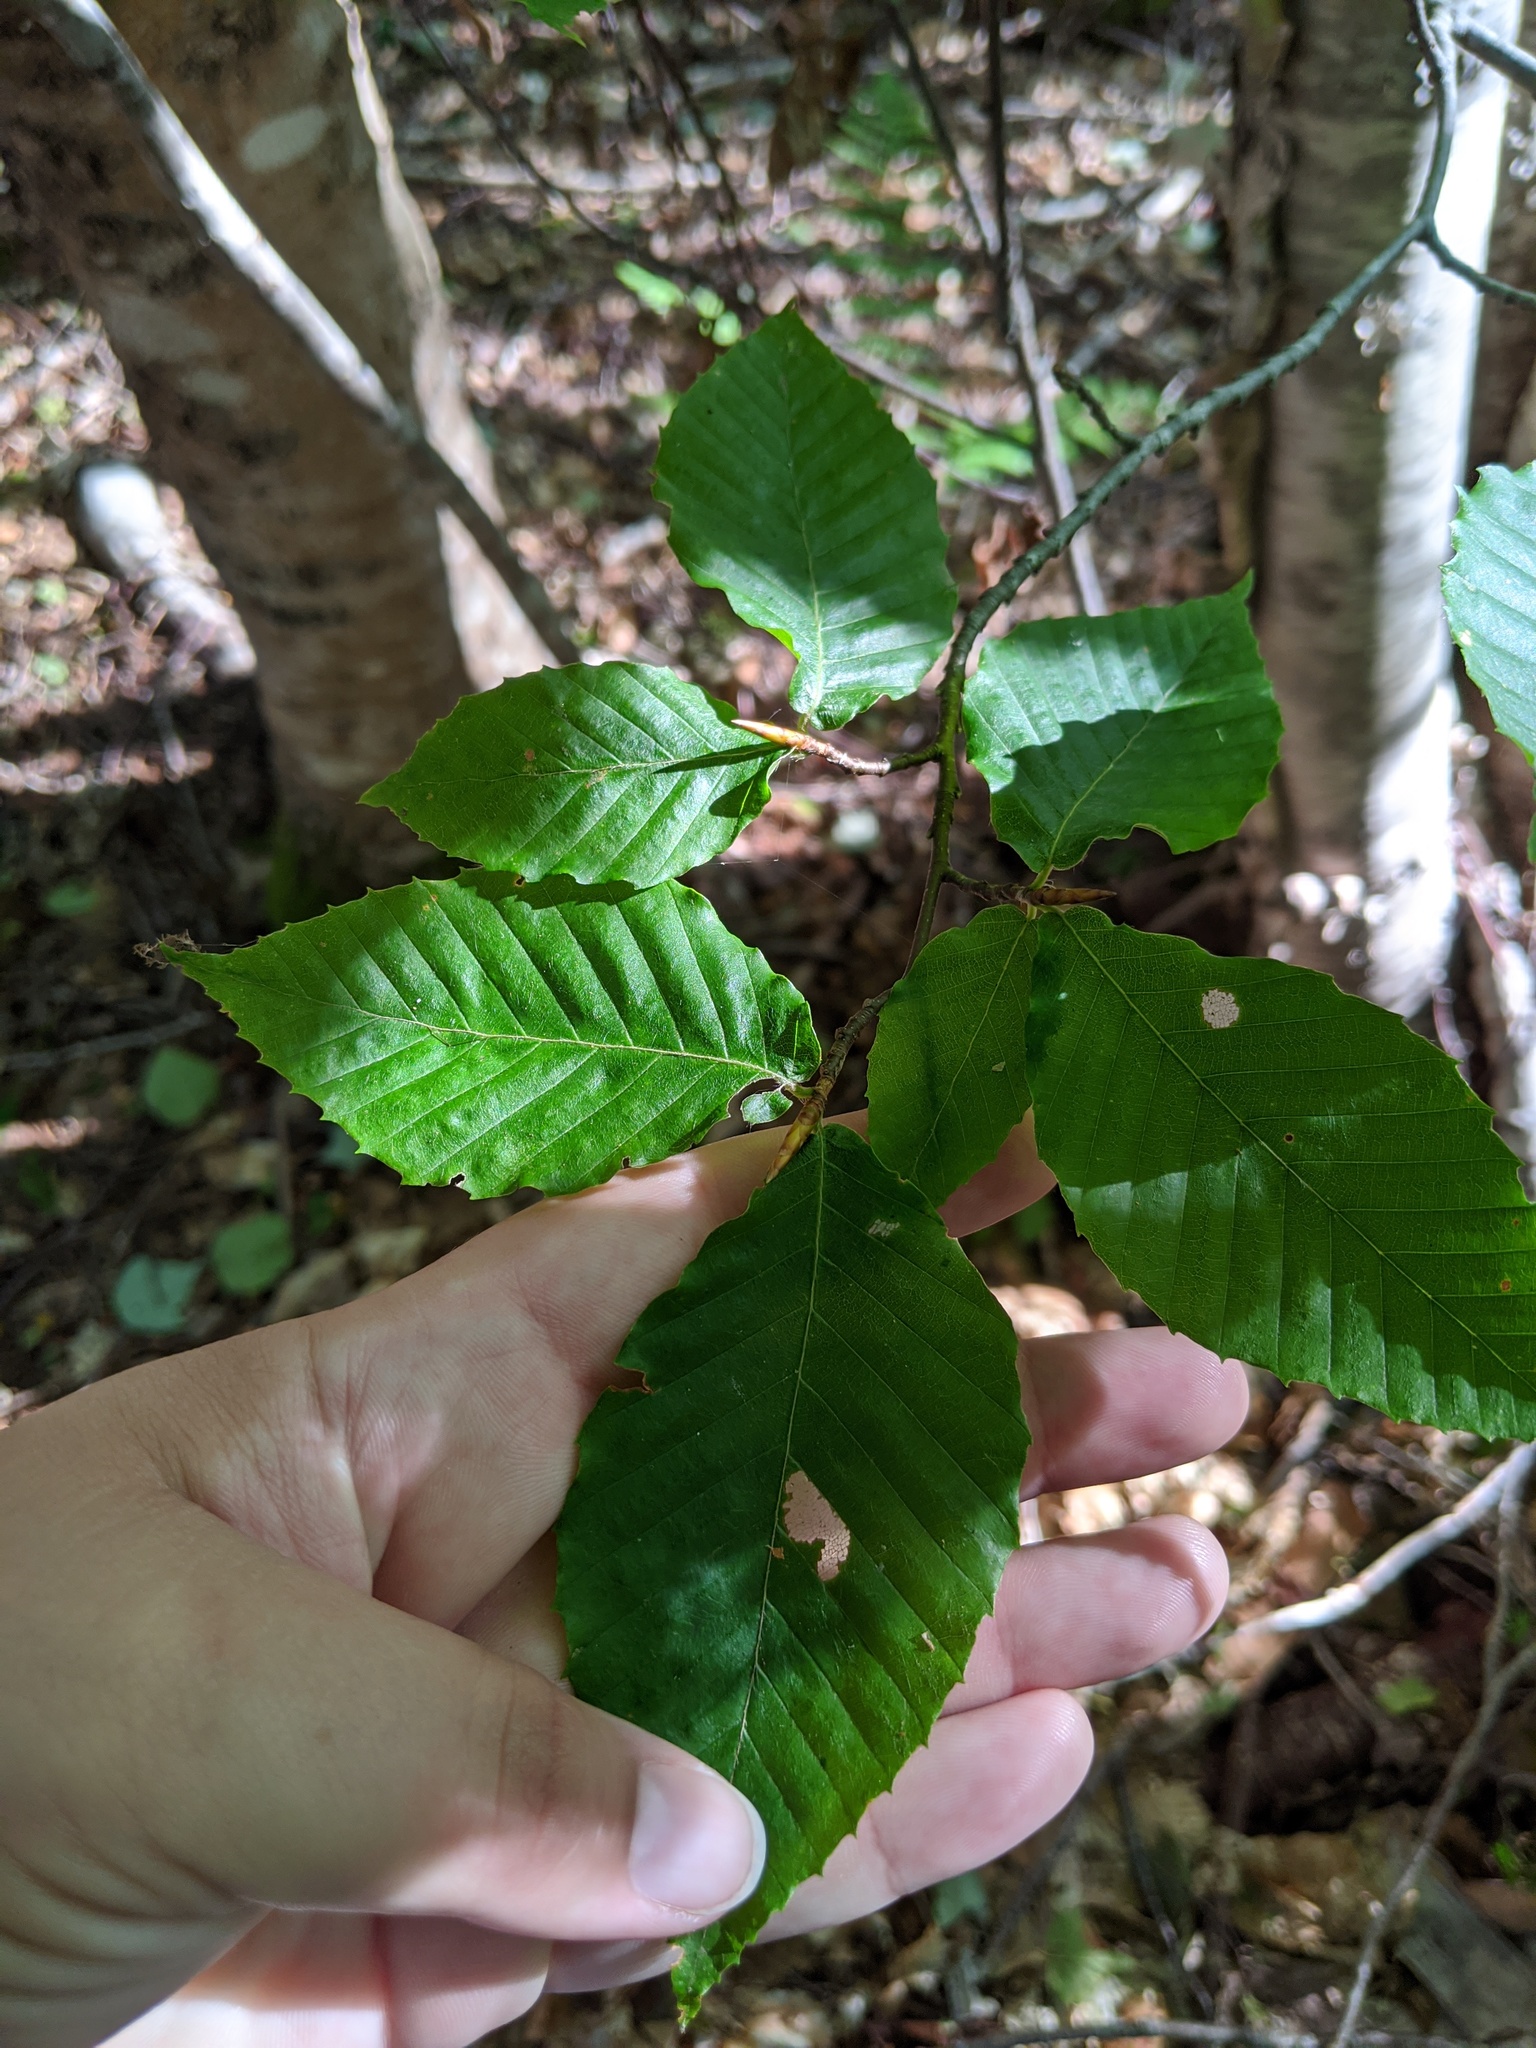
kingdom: Plantae
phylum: Tracheophyta
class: Magnoliopsida
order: Fagales
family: Fagaceae
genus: Fagus
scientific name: Fagus grandifolia
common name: American beech
